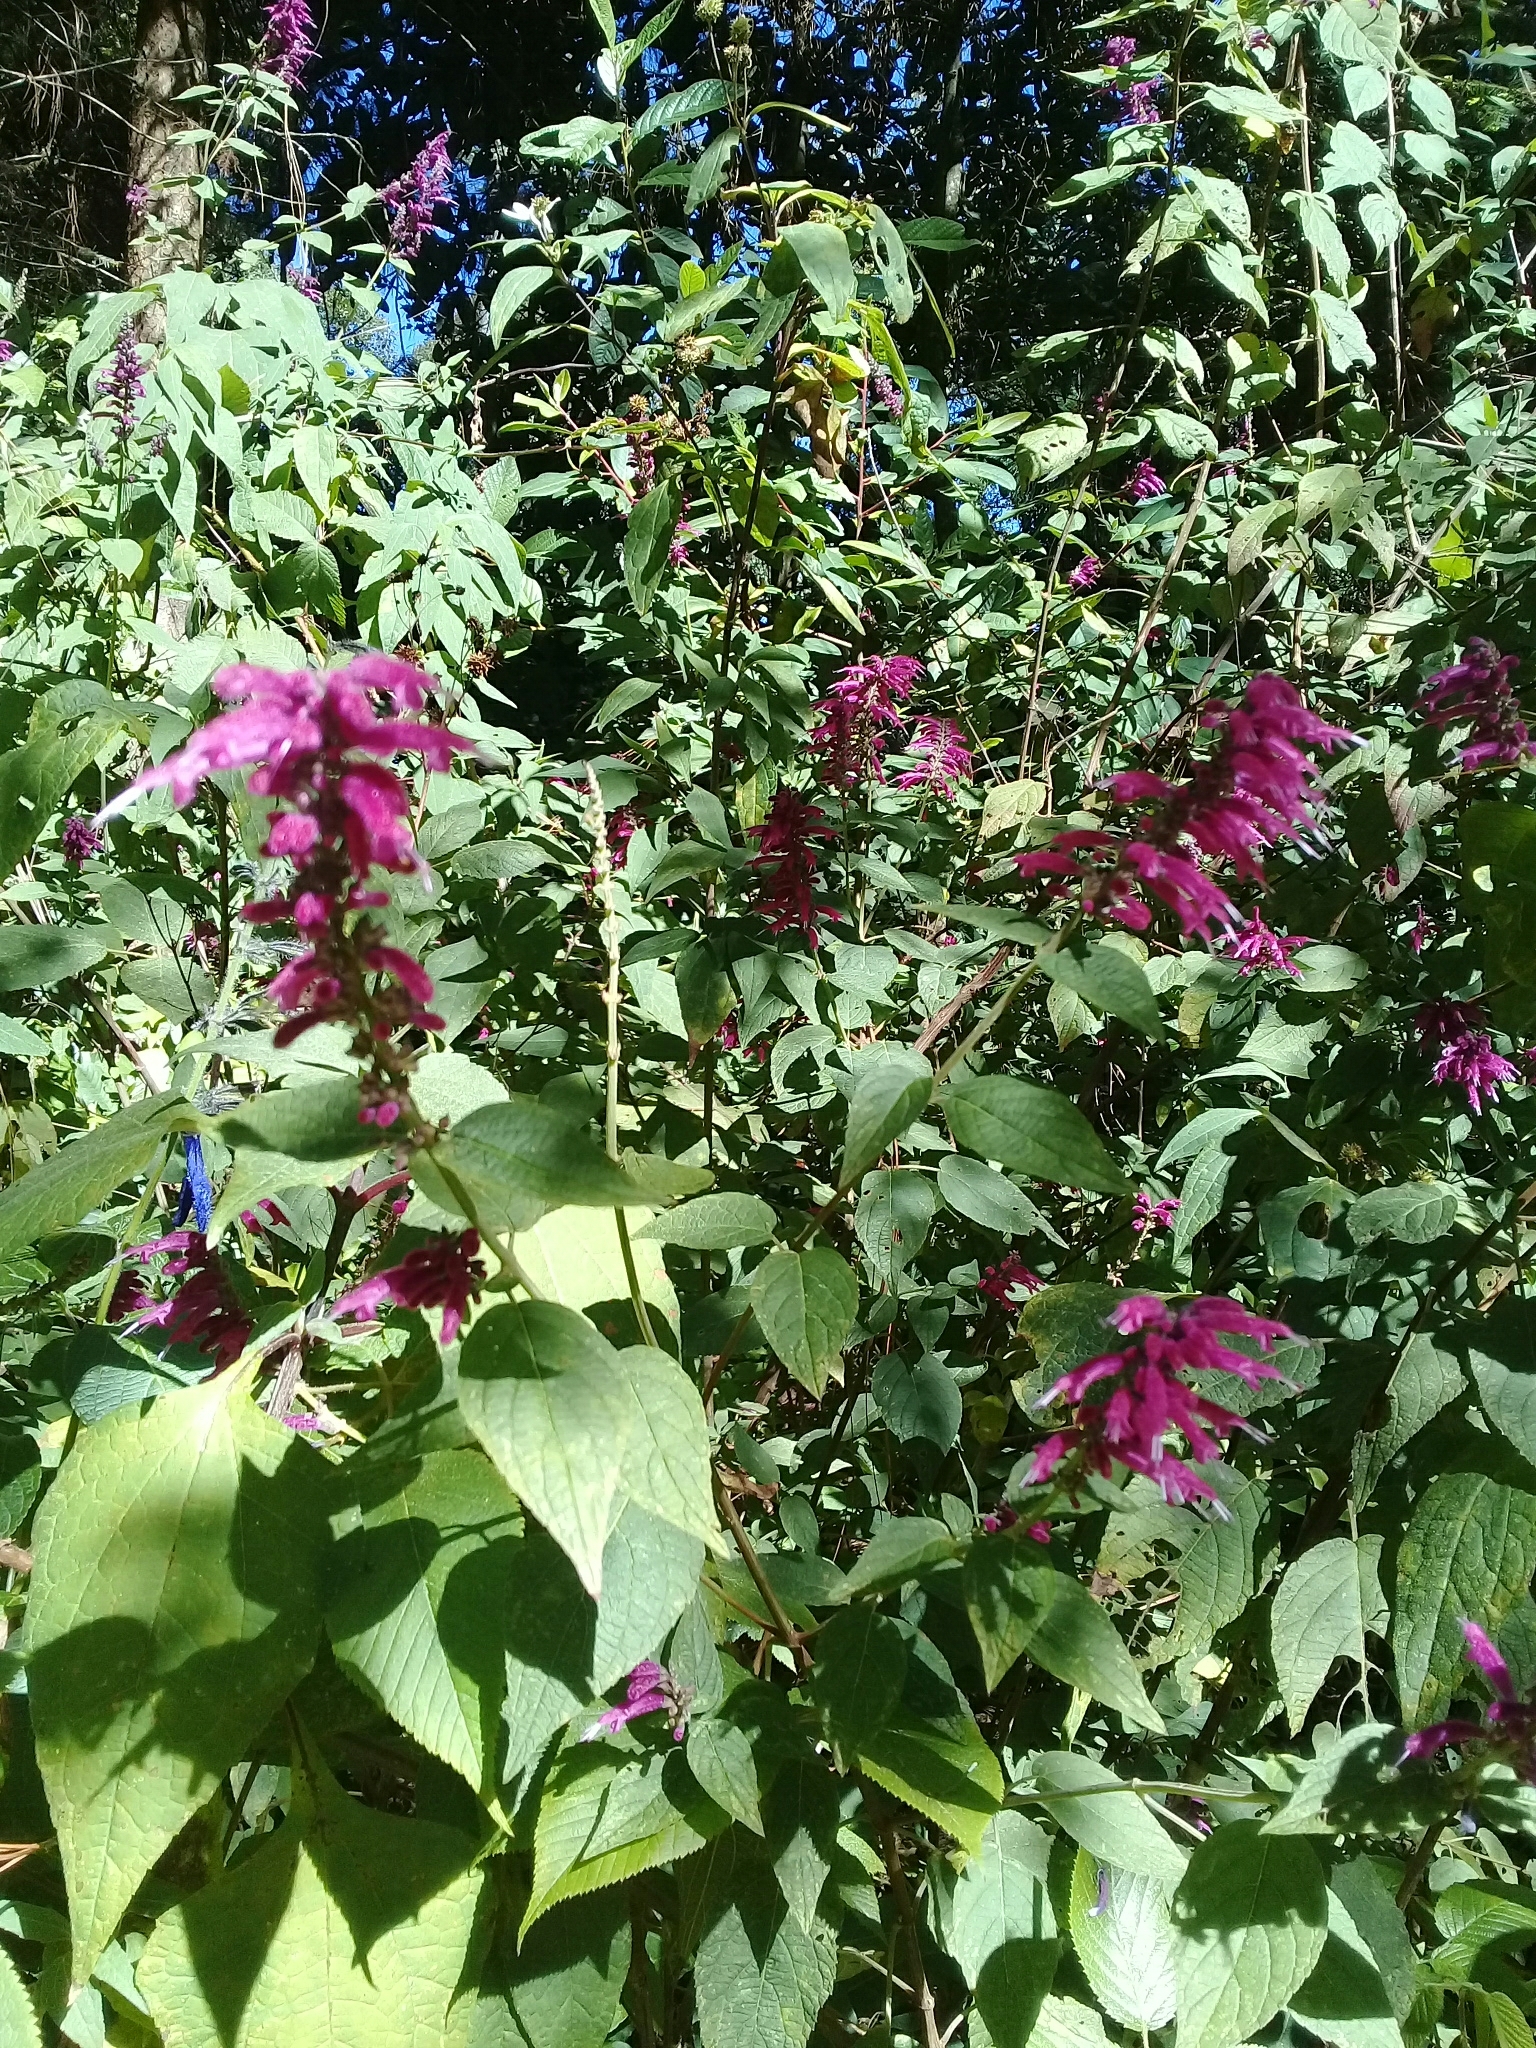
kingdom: Plantae
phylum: Tracheophyta
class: Magnoliopsida
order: Lamiales
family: Lamiaceae
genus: Salvia
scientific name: Salvia iodantha
